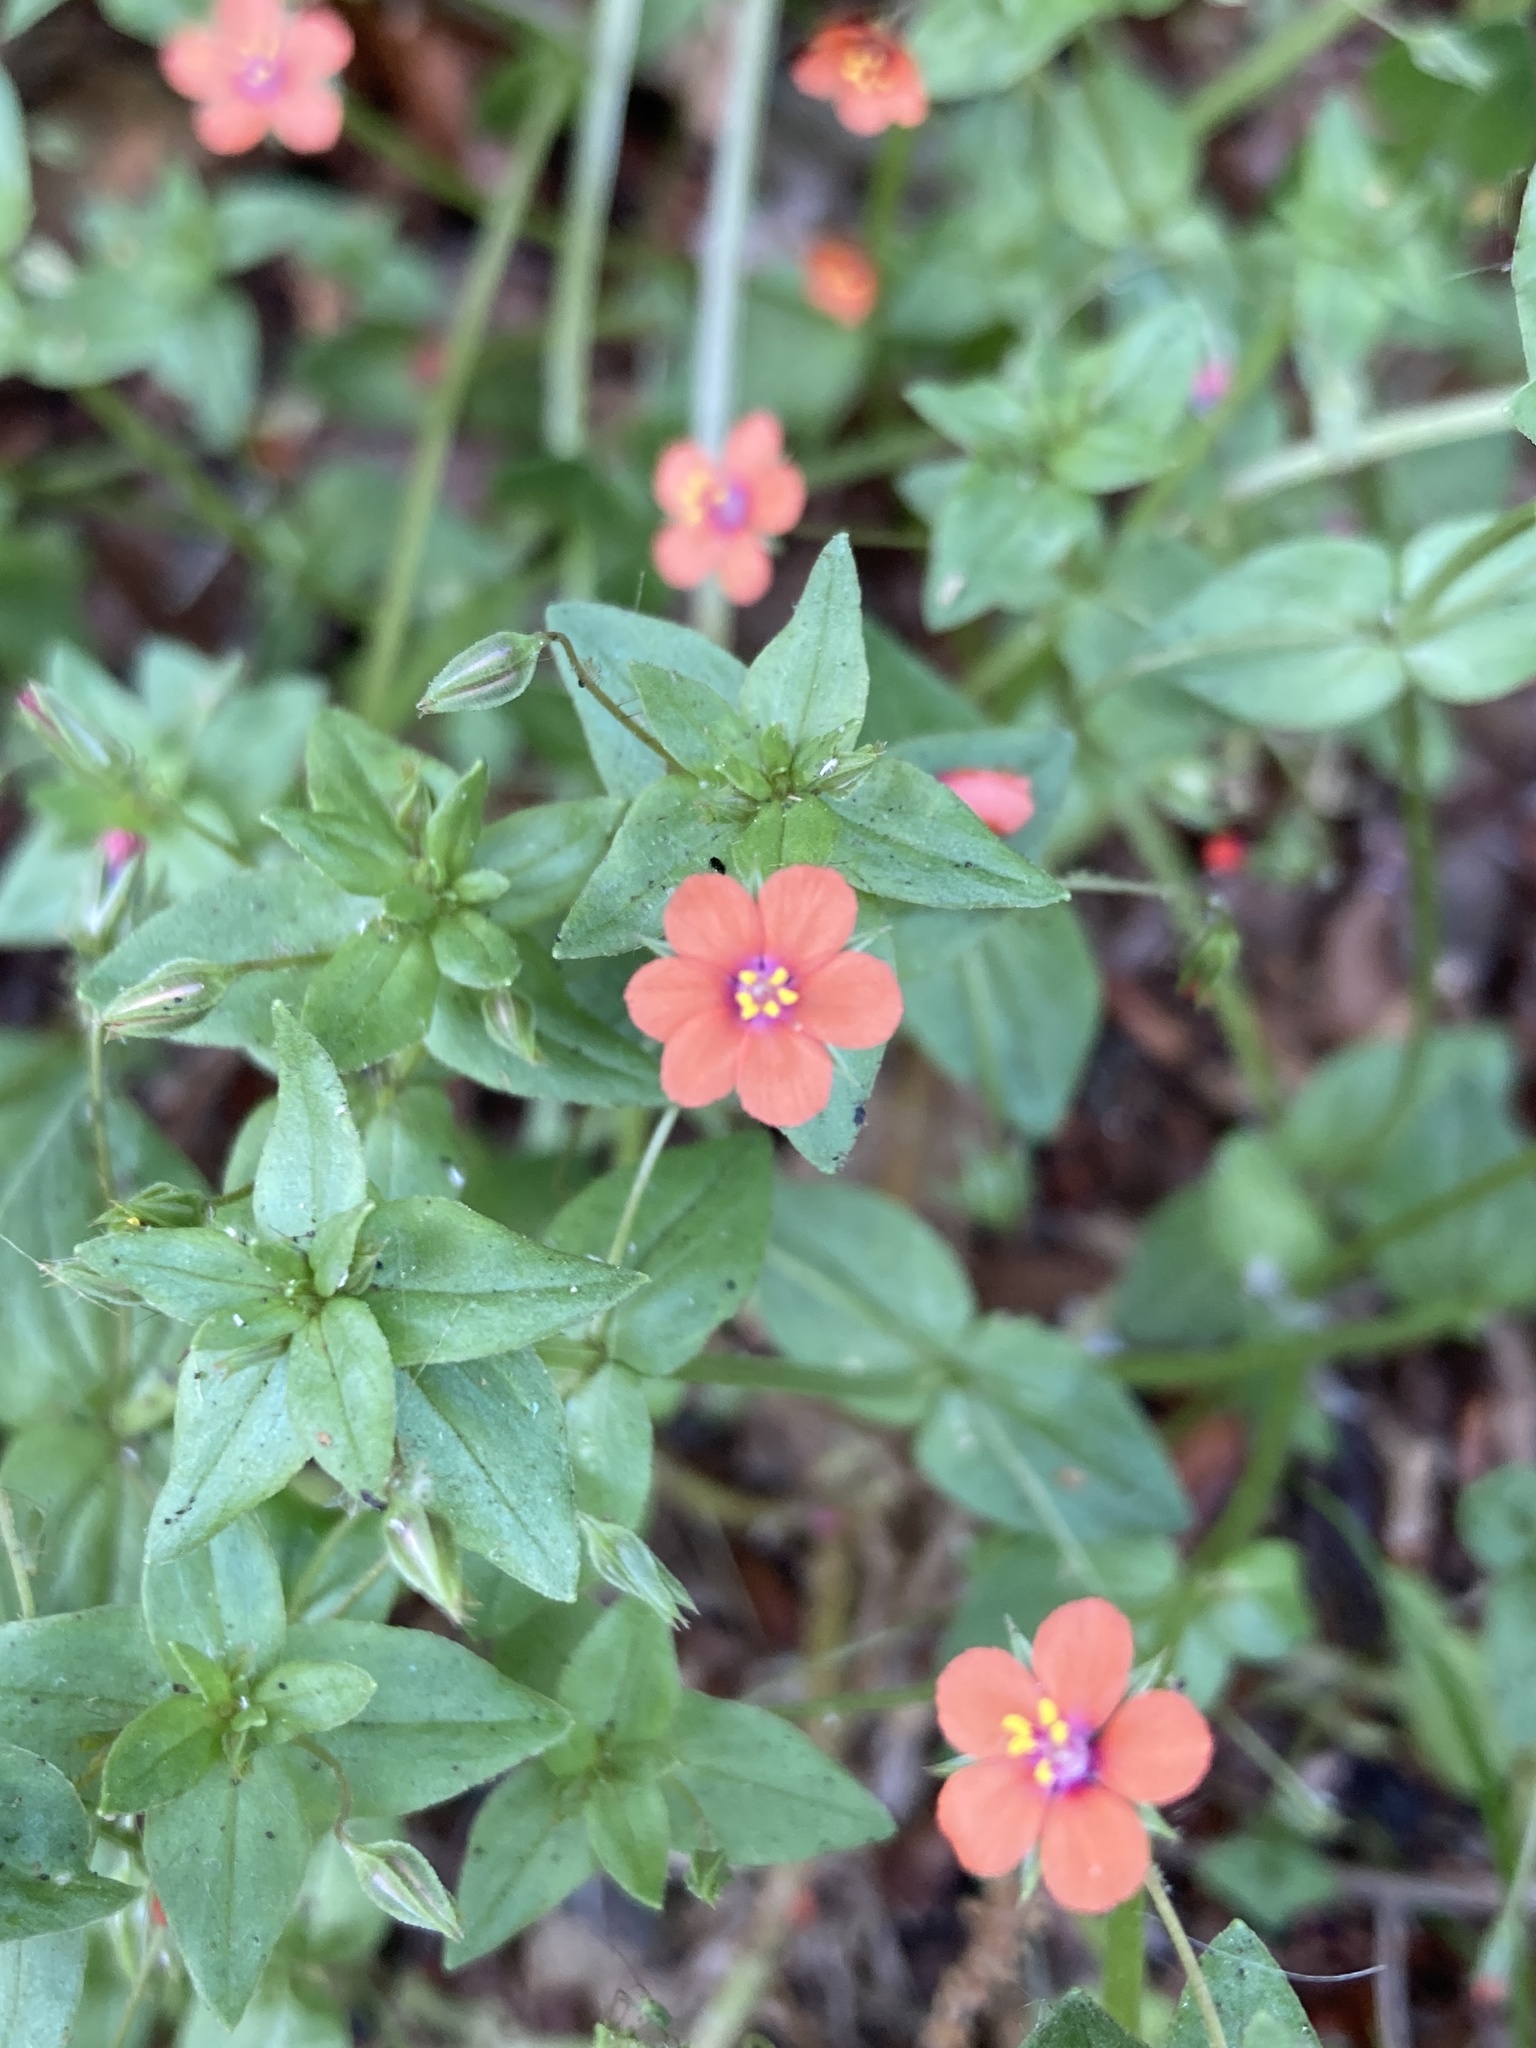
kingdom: Plantae
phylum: Tracheophyta
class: Magnoliopsida
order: Ericales
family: Primulaceae
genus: Lysimachia
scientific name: Lysimachia arvensis
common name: Scarlet pimpernel
